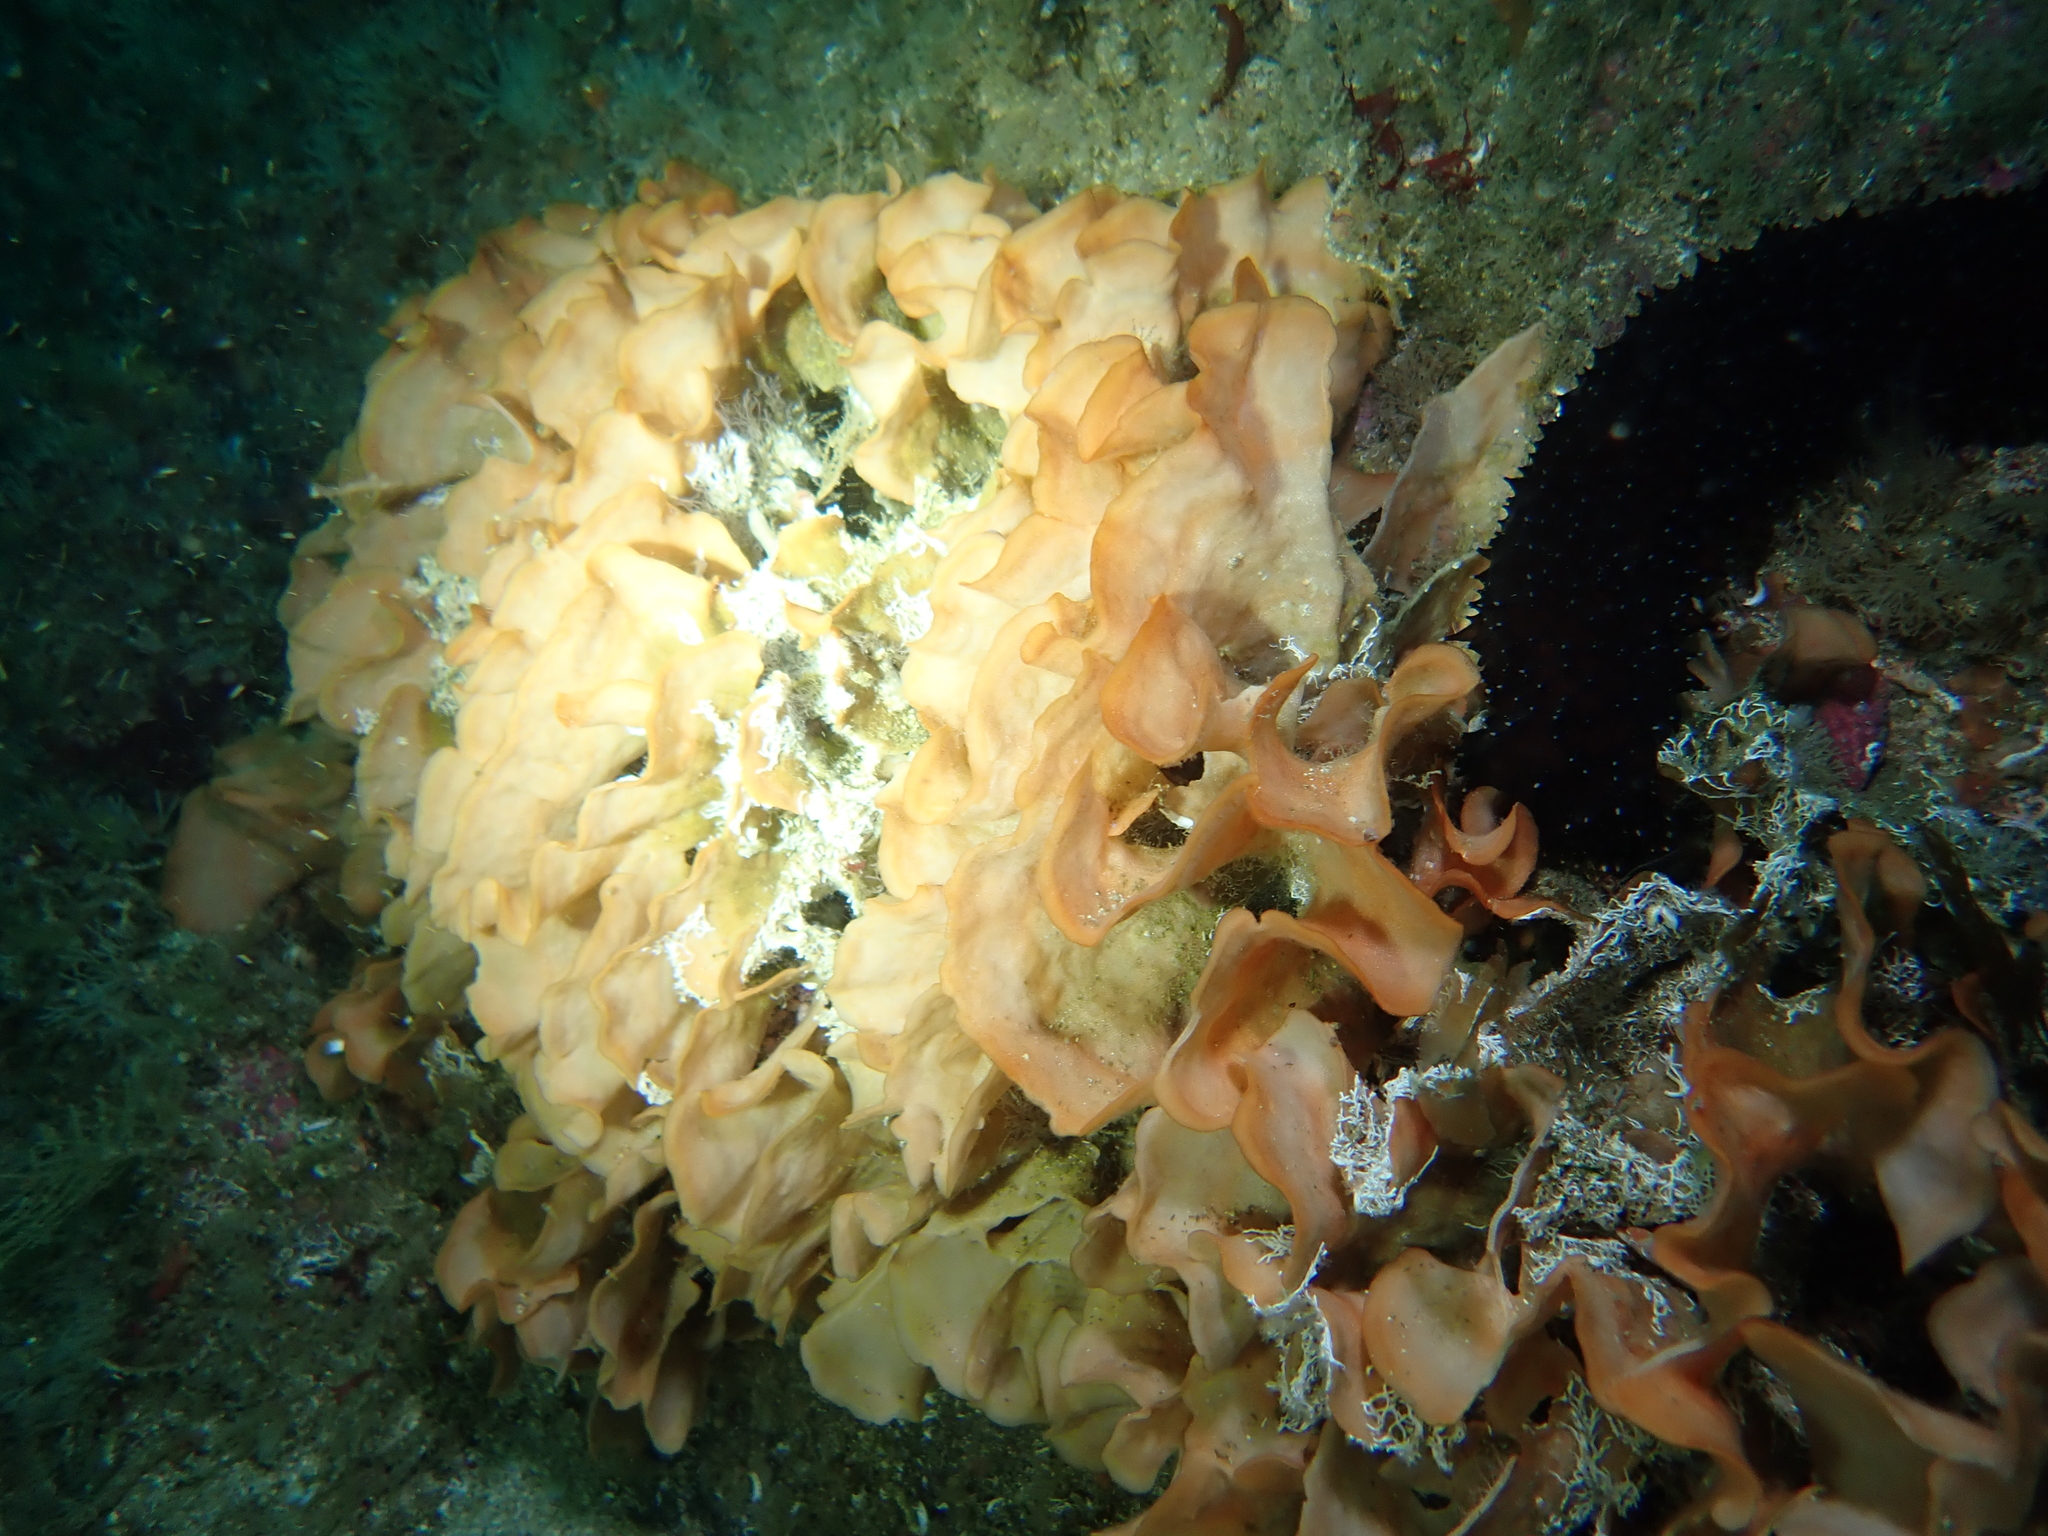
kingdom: Animalia
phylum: Bryozoa
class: Gymnolaemata
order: Cheilostomatida
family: Bitectiporidae
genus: Pentapora
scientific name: Pentapora foliacea
